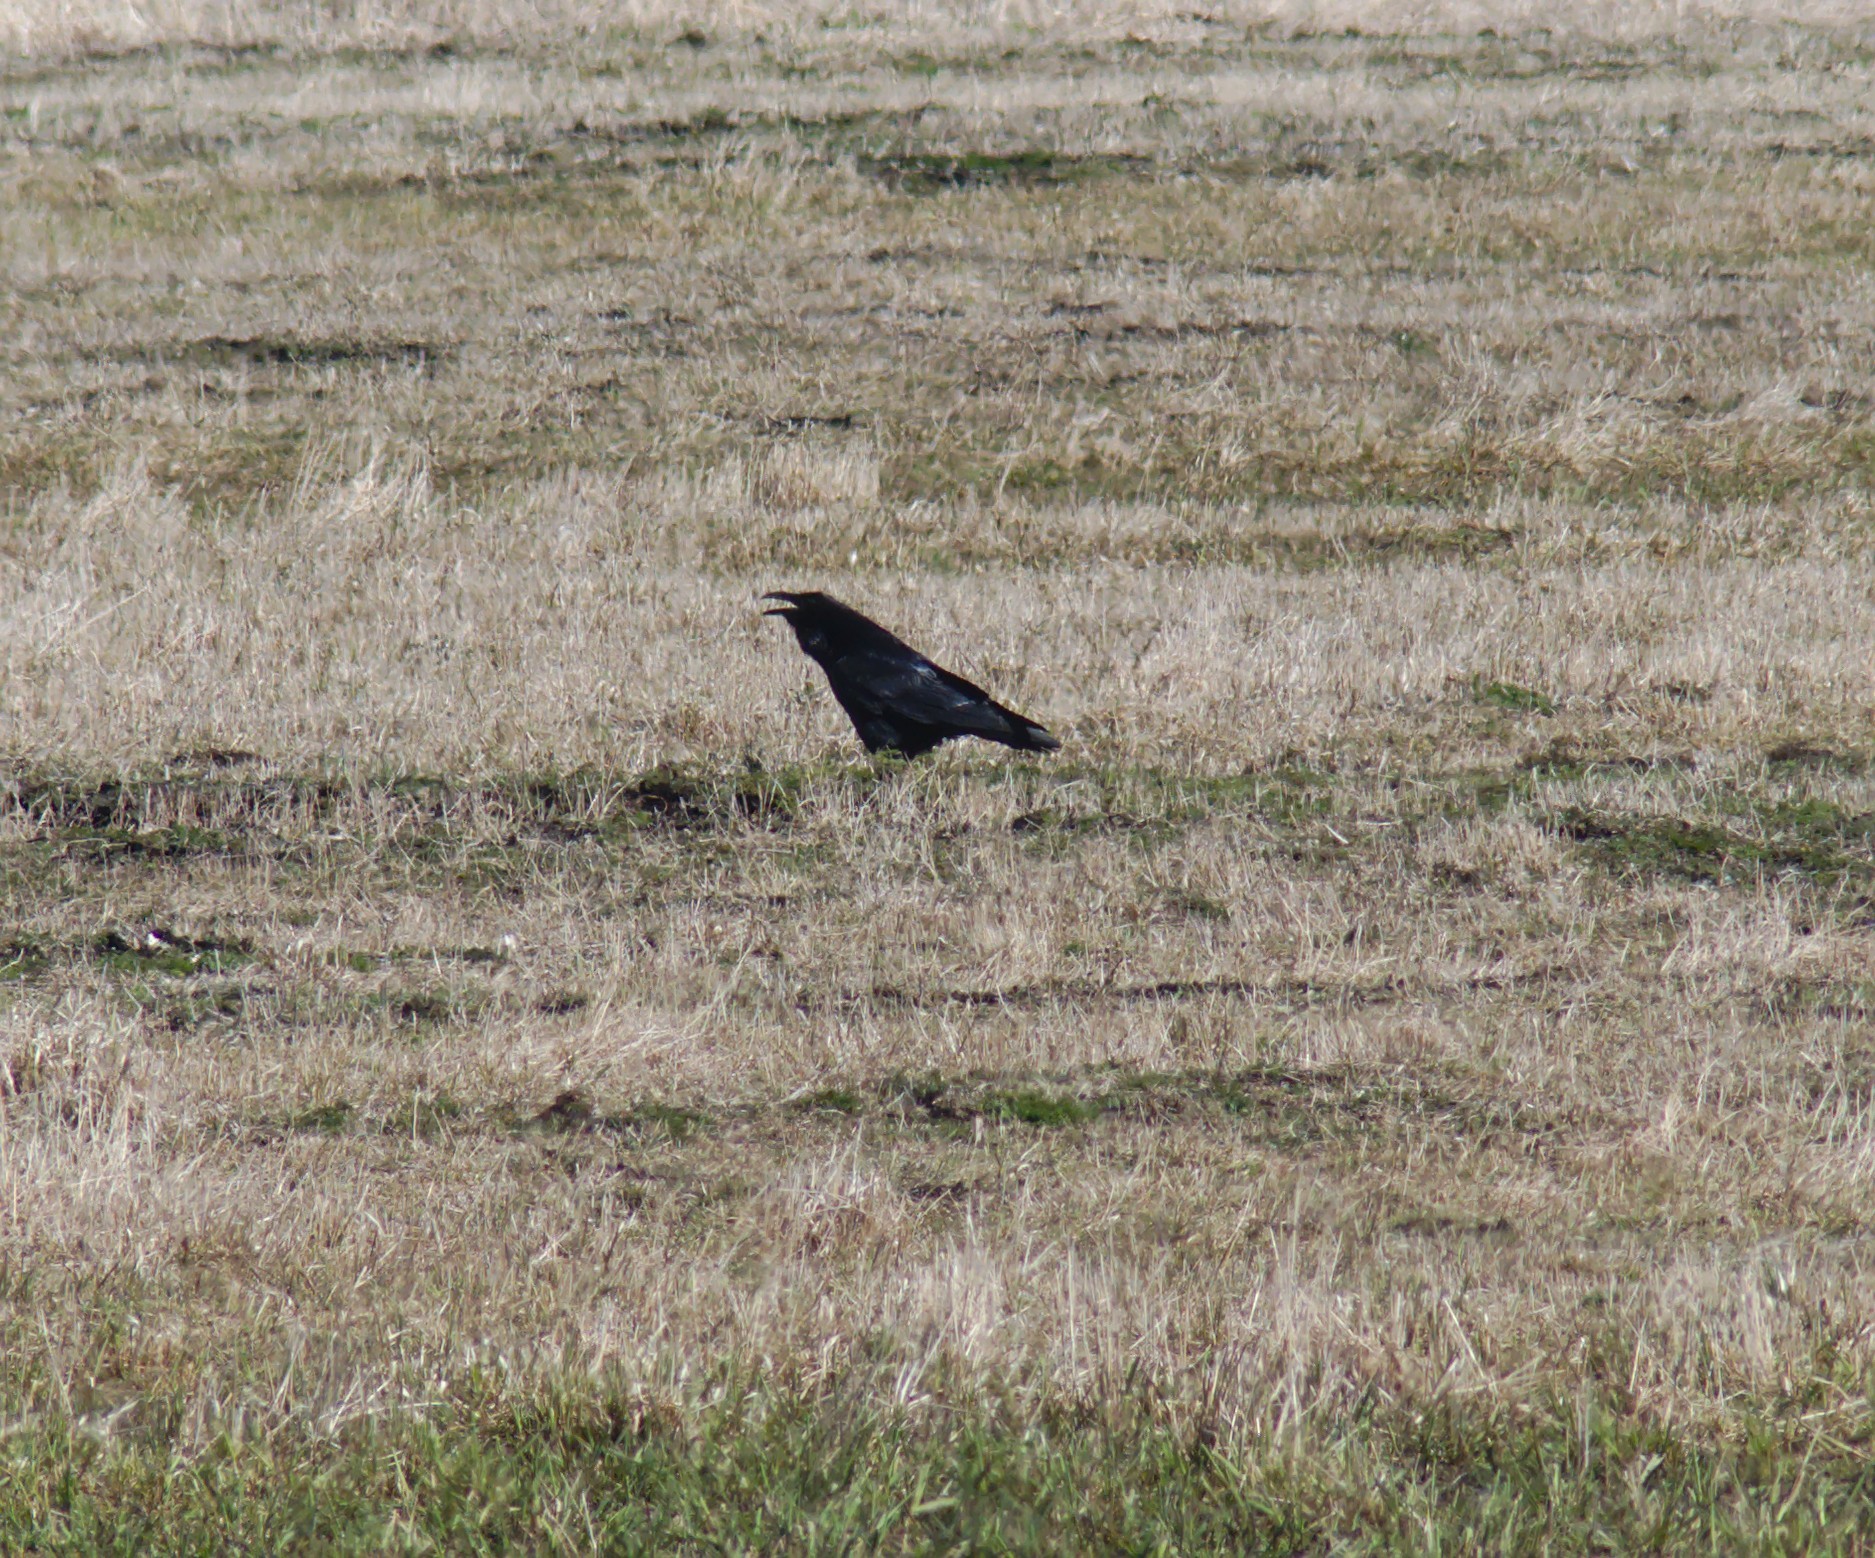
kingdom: Animalia
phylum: Chordata
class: Aves
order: Passeriformes
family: Corvidae
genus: Corvus
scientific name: Corvus corax
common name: Common raven
